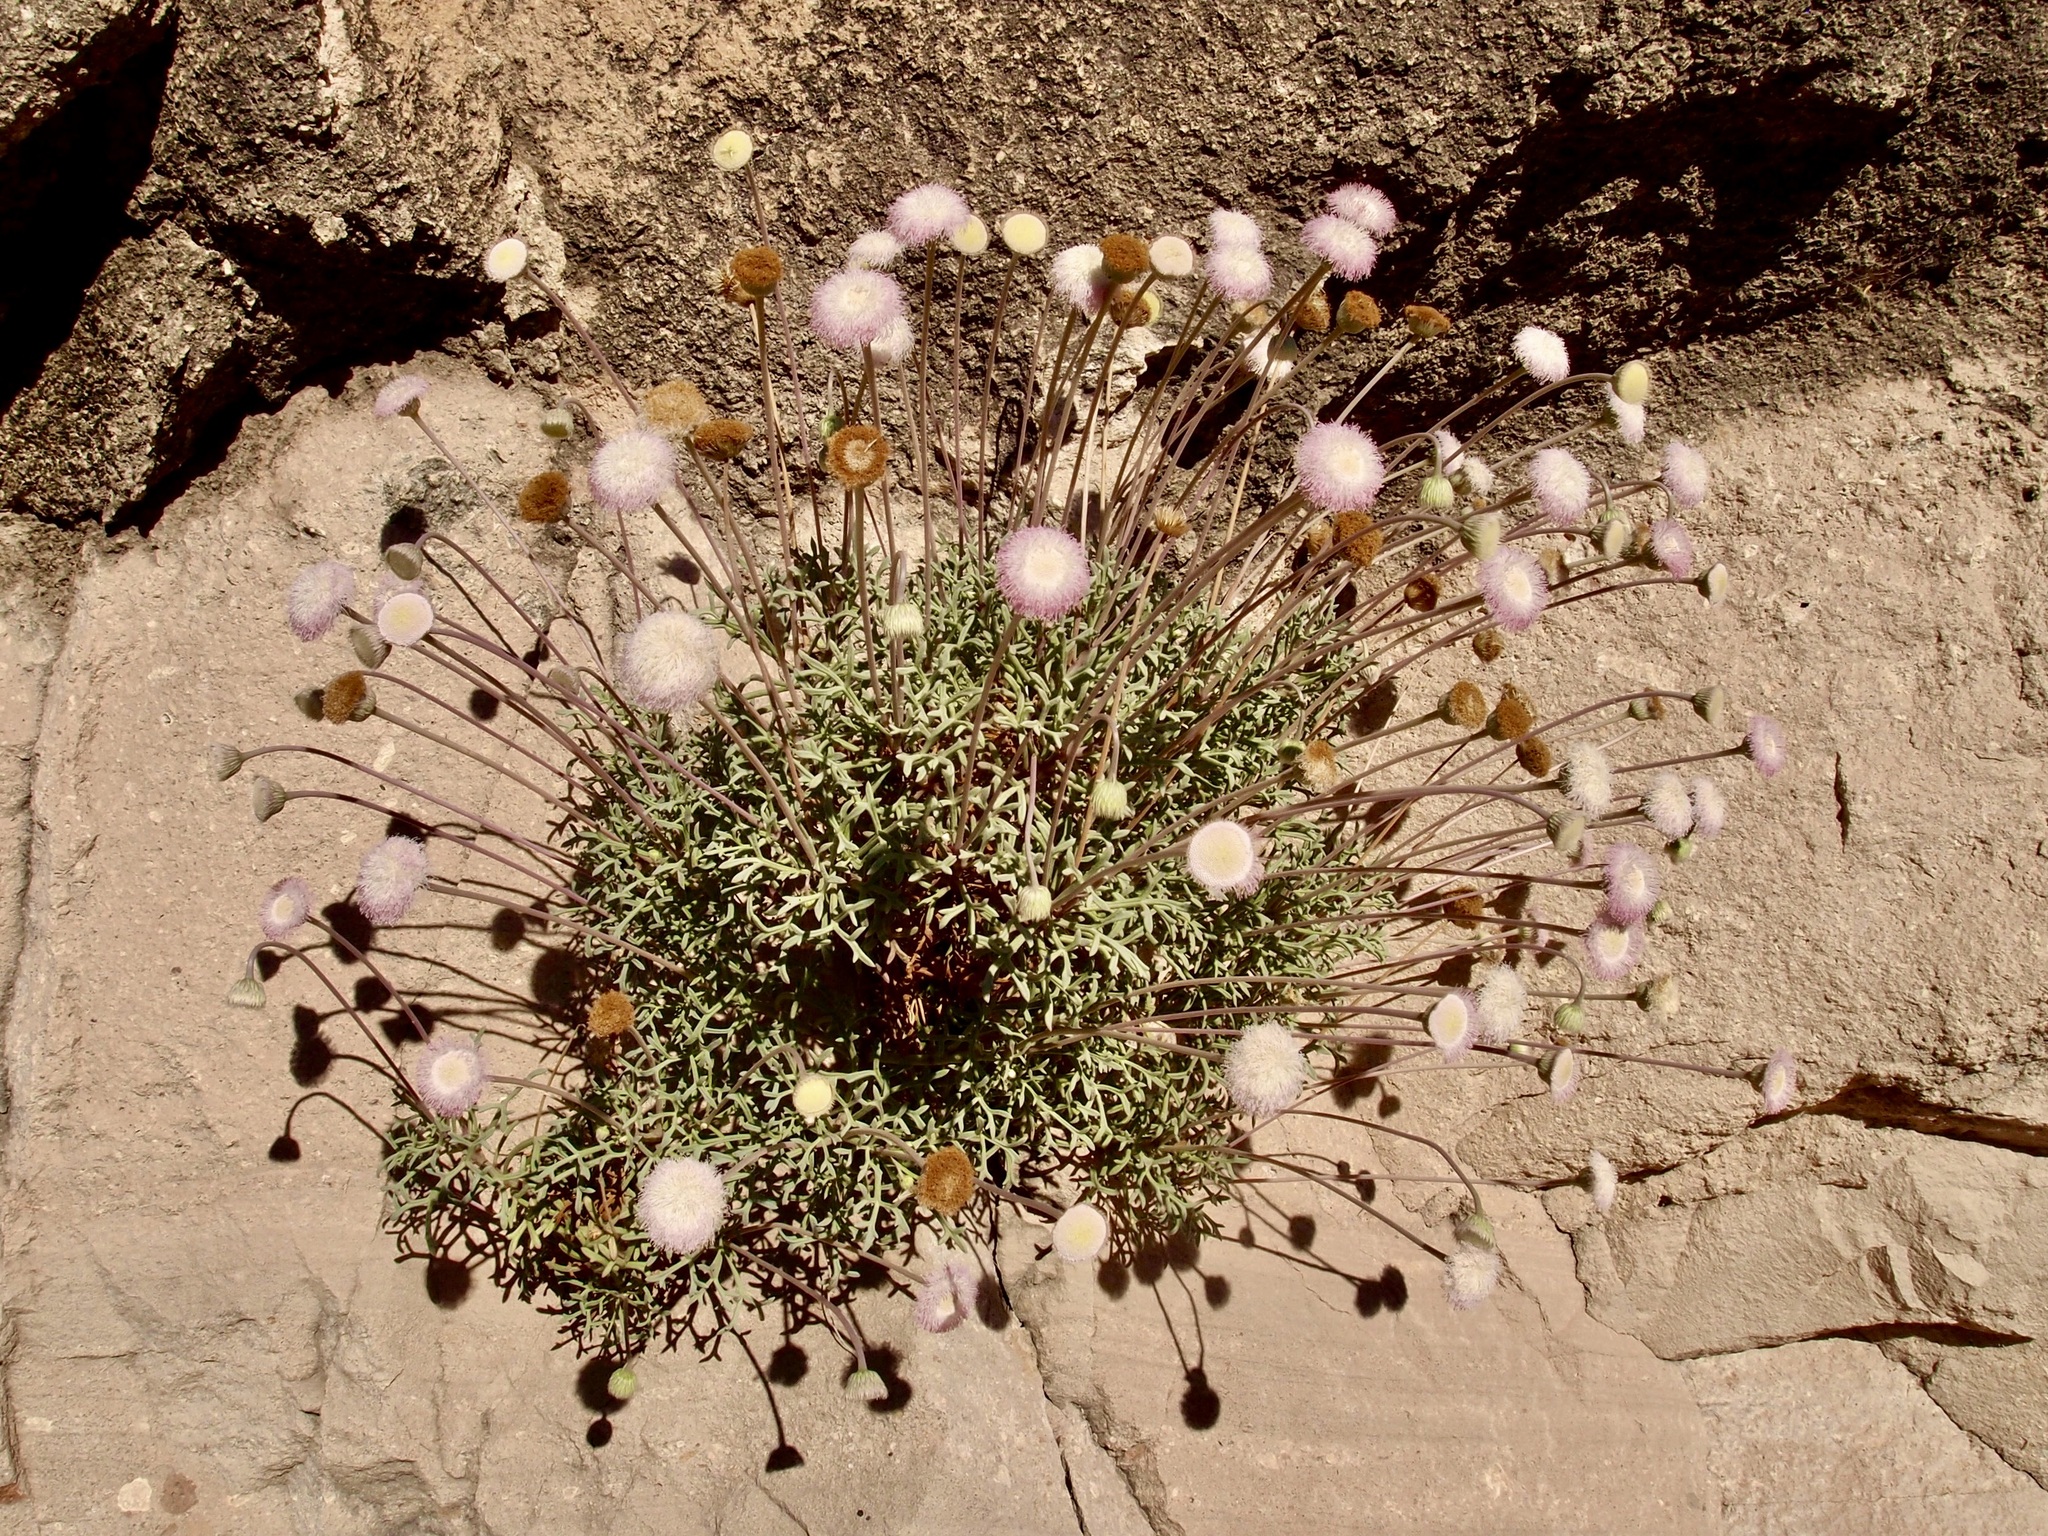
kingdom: Plantae
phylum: Tracheophyta
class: Magnoliopsida
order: Asterales
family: Asteraceae
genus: Hofmeisteria
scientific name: Hofmeisteria crassifolia
